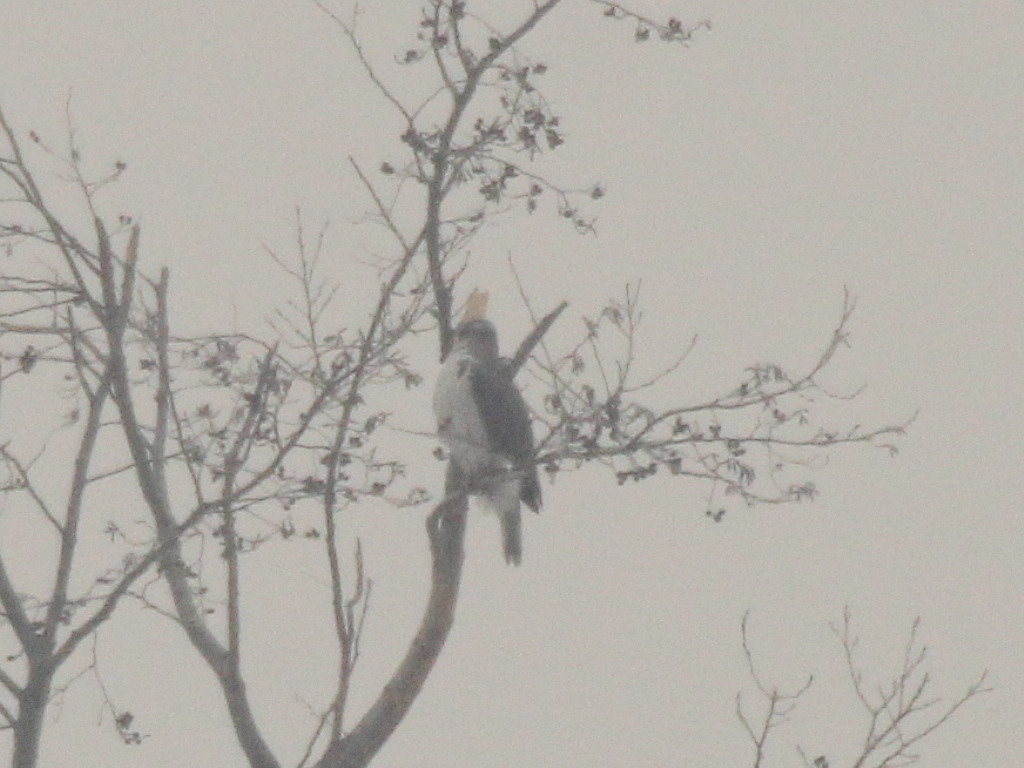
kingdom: Animalia
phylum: Chordata
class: Aves
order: Accipitriformes
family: Accipitridae
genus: Accipiter
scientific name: Accipiter gentilis
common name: Northern goshawk
